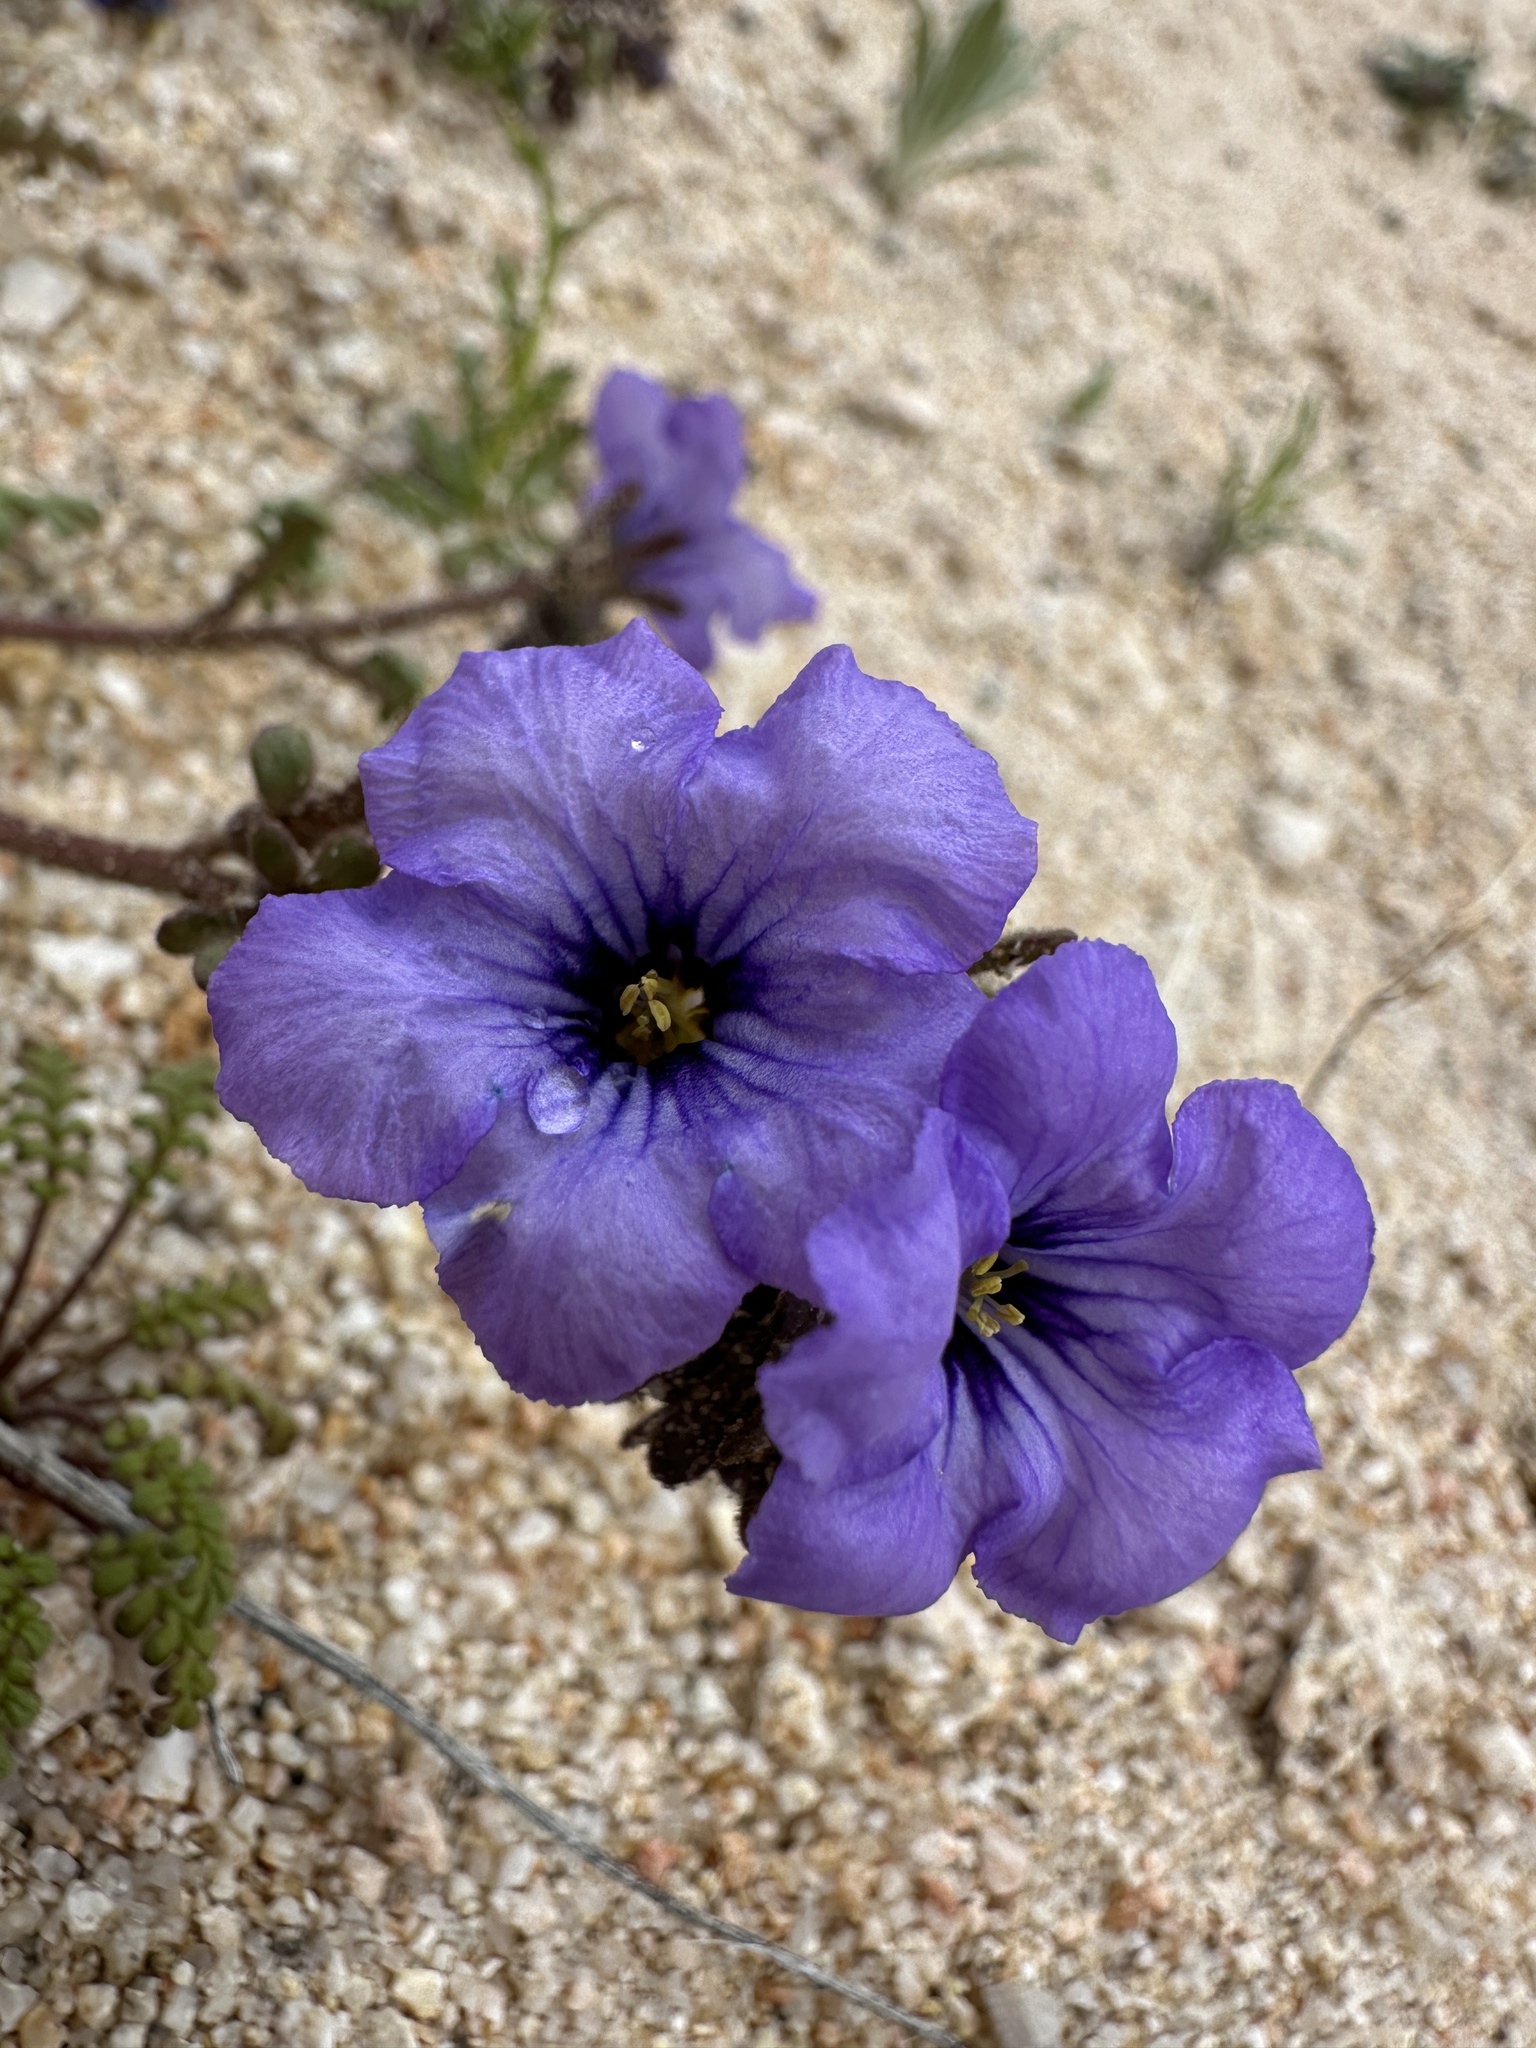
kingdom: Plantae
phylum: Tracheophyta
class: Magnoliopsida
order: Boraginales
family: Hydrophyllaceae
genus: Phacelia
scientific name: Phacelia fremontii
